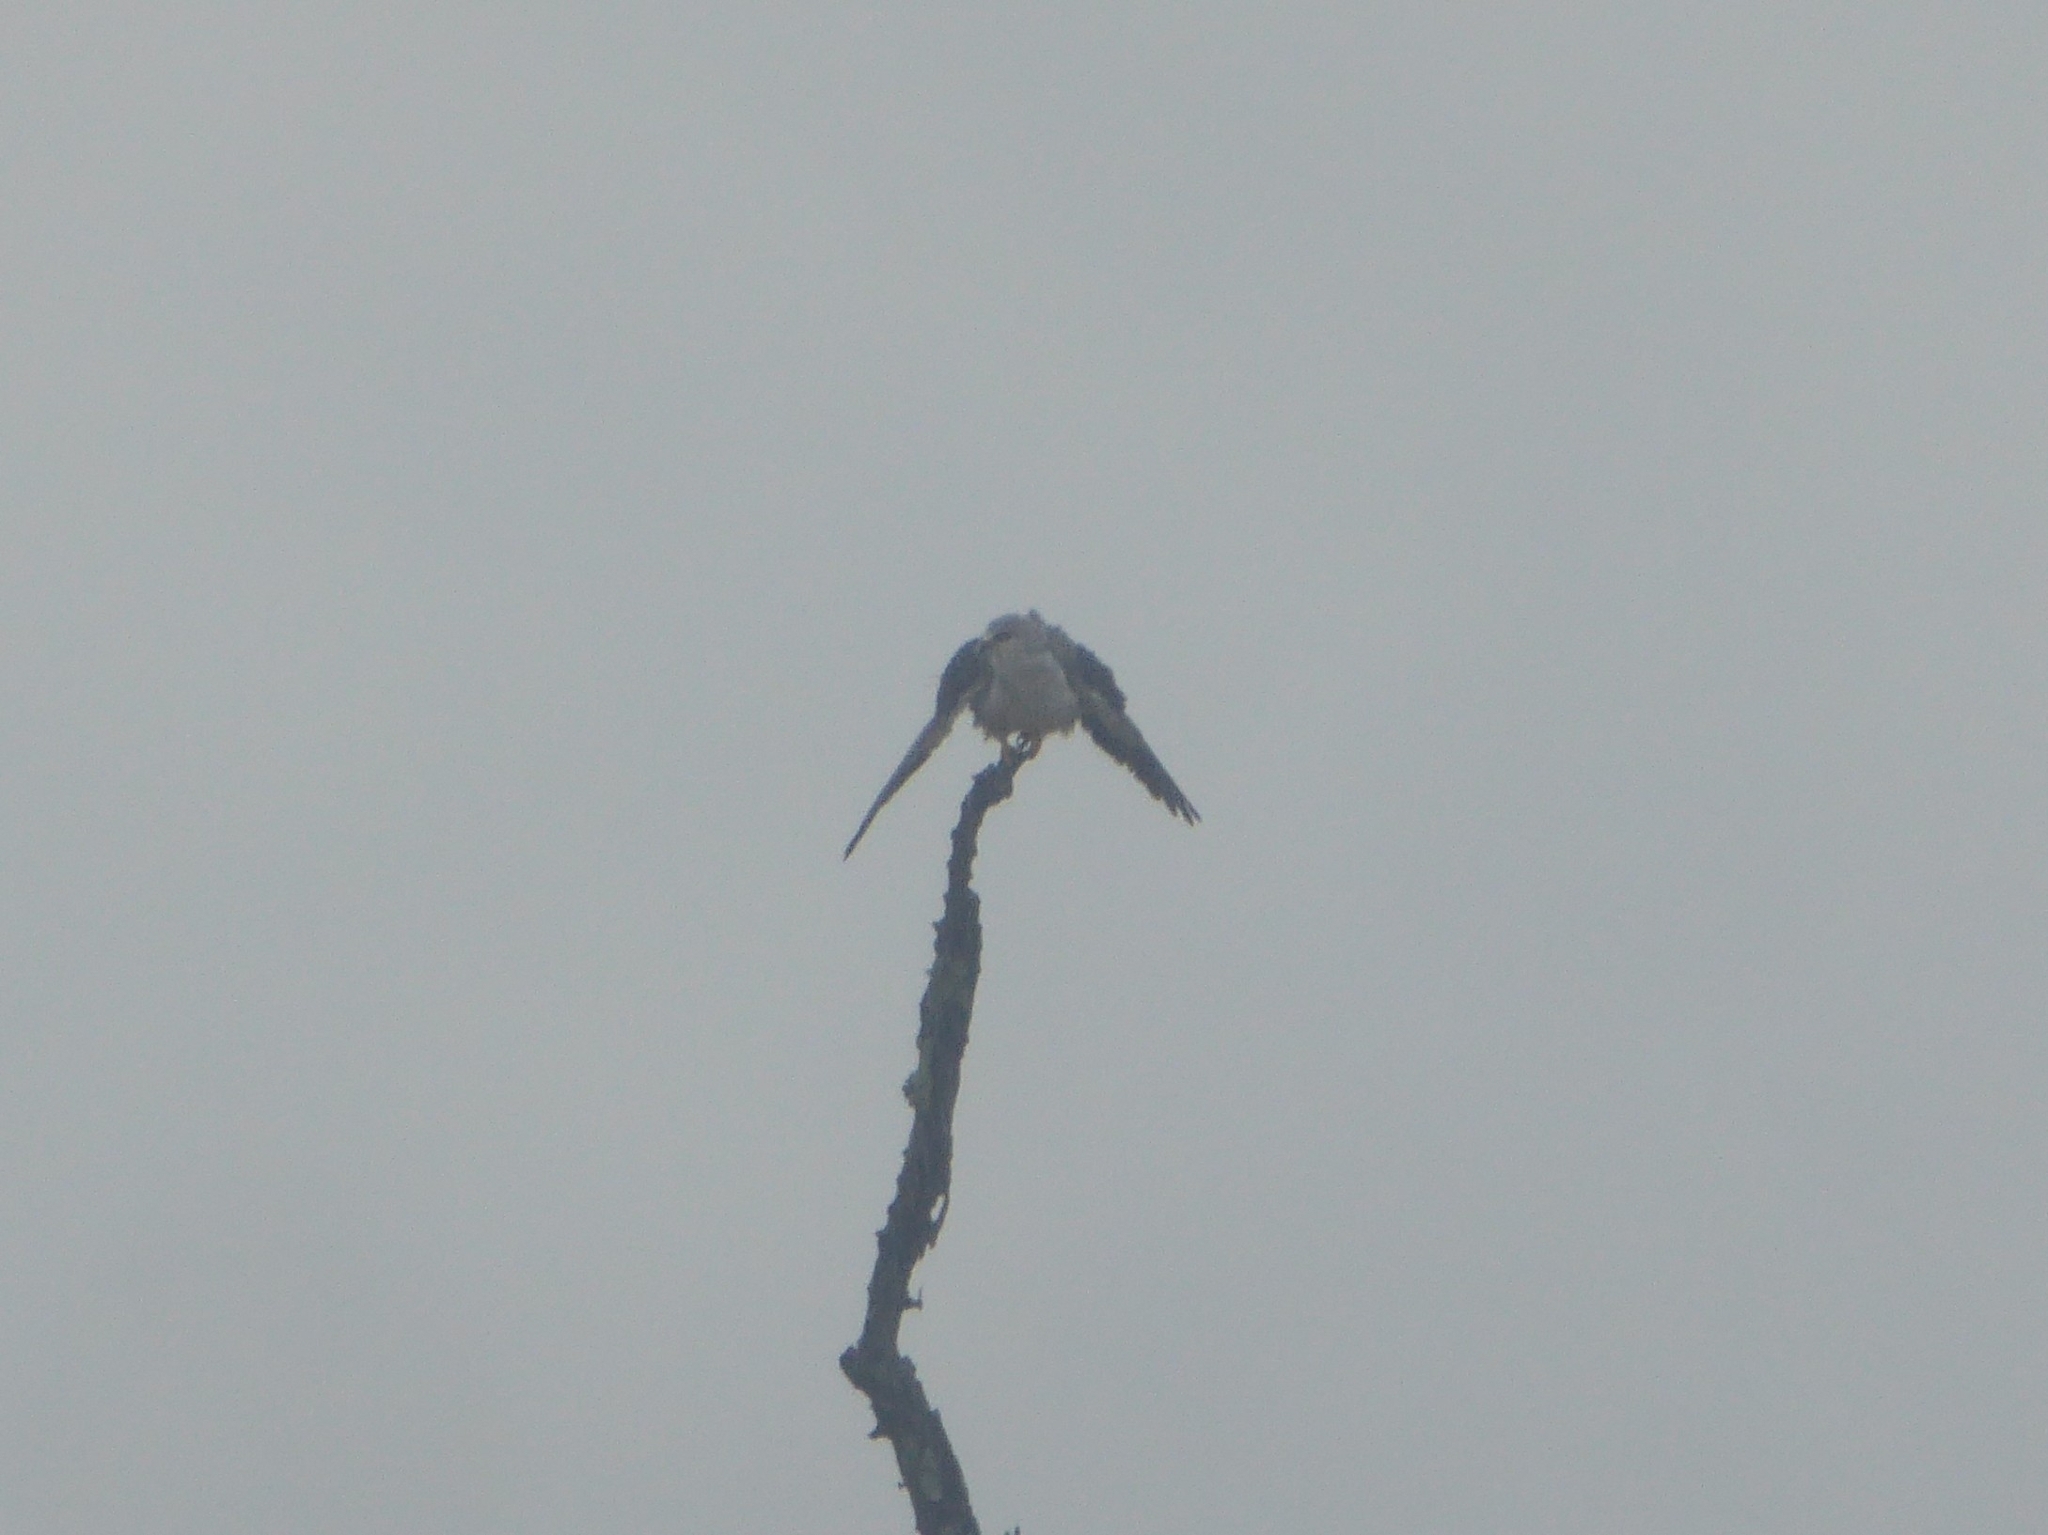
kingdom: Animalia
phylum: Chordata
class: Aves
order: Accipitriformes
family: Accipitridae
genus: Elanus
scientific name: Elanus caeruleus
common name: Black-winged kite
